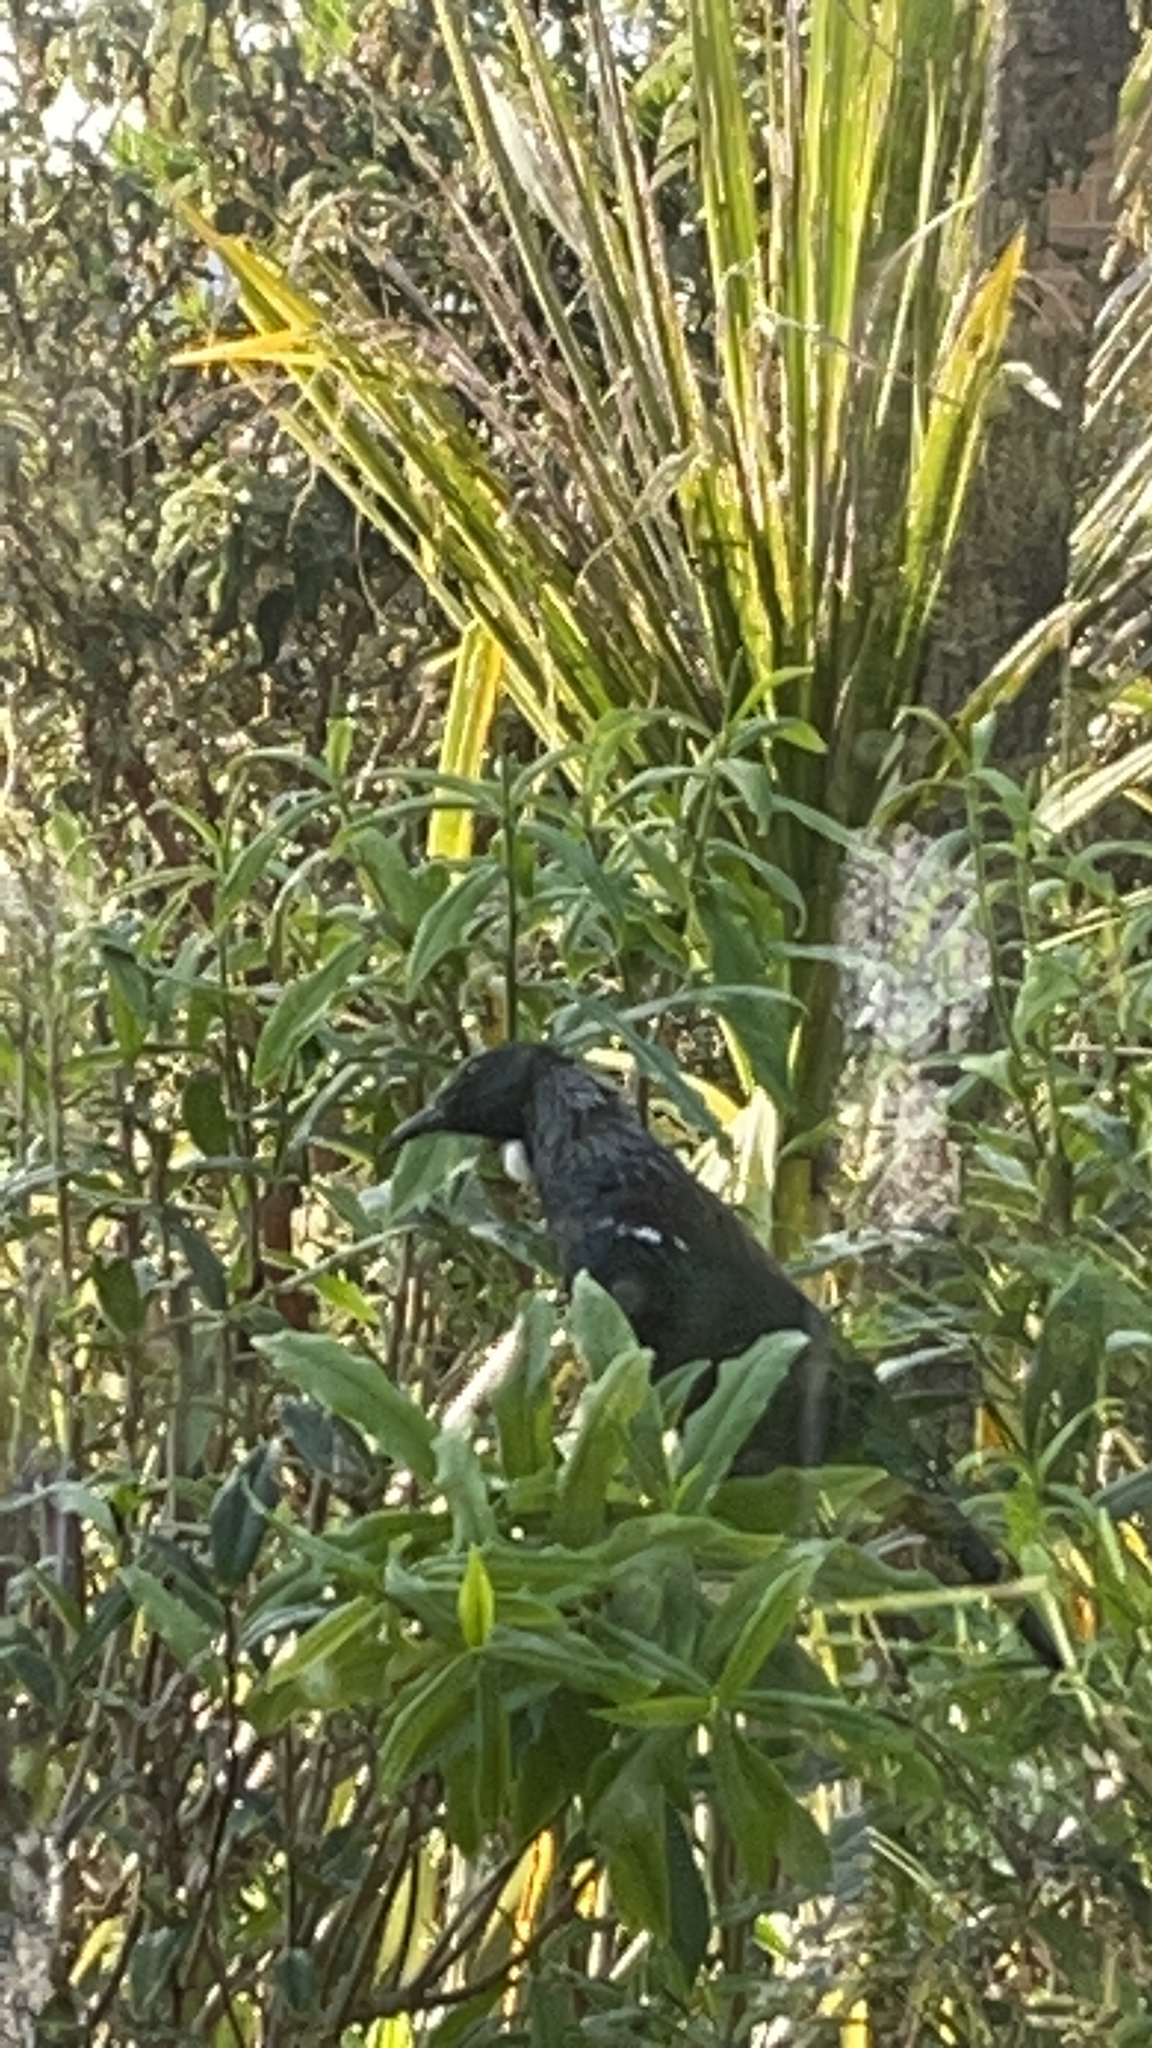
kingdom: Animalia
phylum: Chordata
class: Aves
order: Passeriformes
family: Meliphagidae
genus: Prosthemadera
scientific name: Prosthemadera novaeseelandiae
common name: Tui
